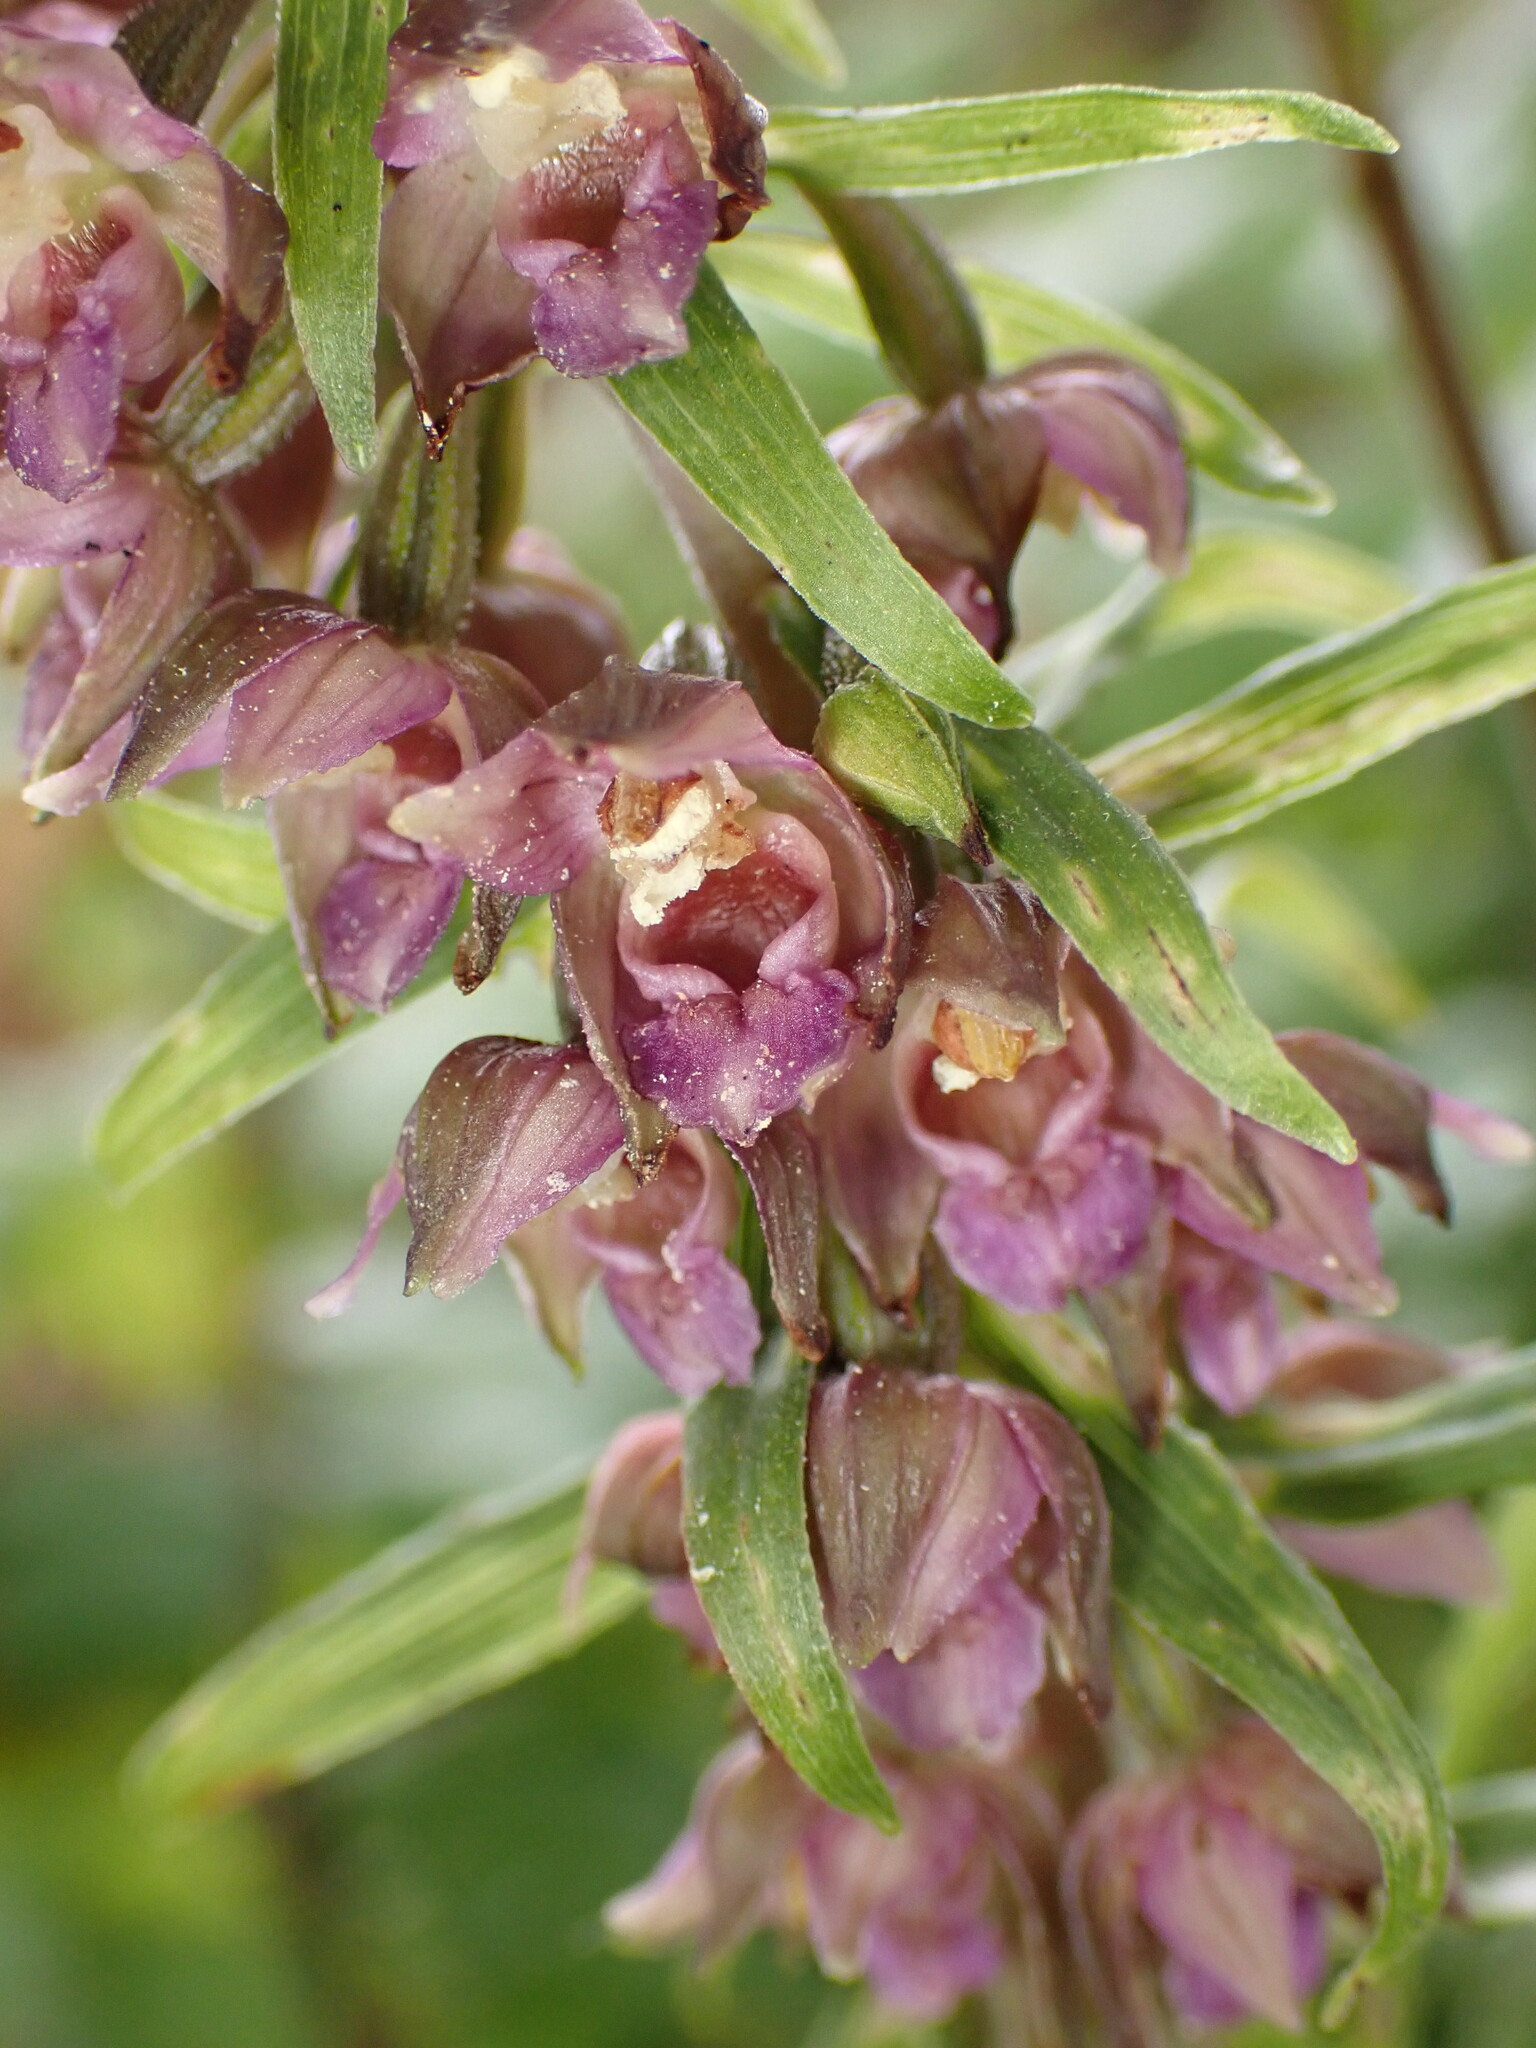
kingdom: Plantae
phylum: Tracheophyta
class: Liliopsida
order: Asparagales
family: Orchidaceae
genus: Epipactis
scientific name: Epipactis helleborine
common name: Broad-leaved helleborine
